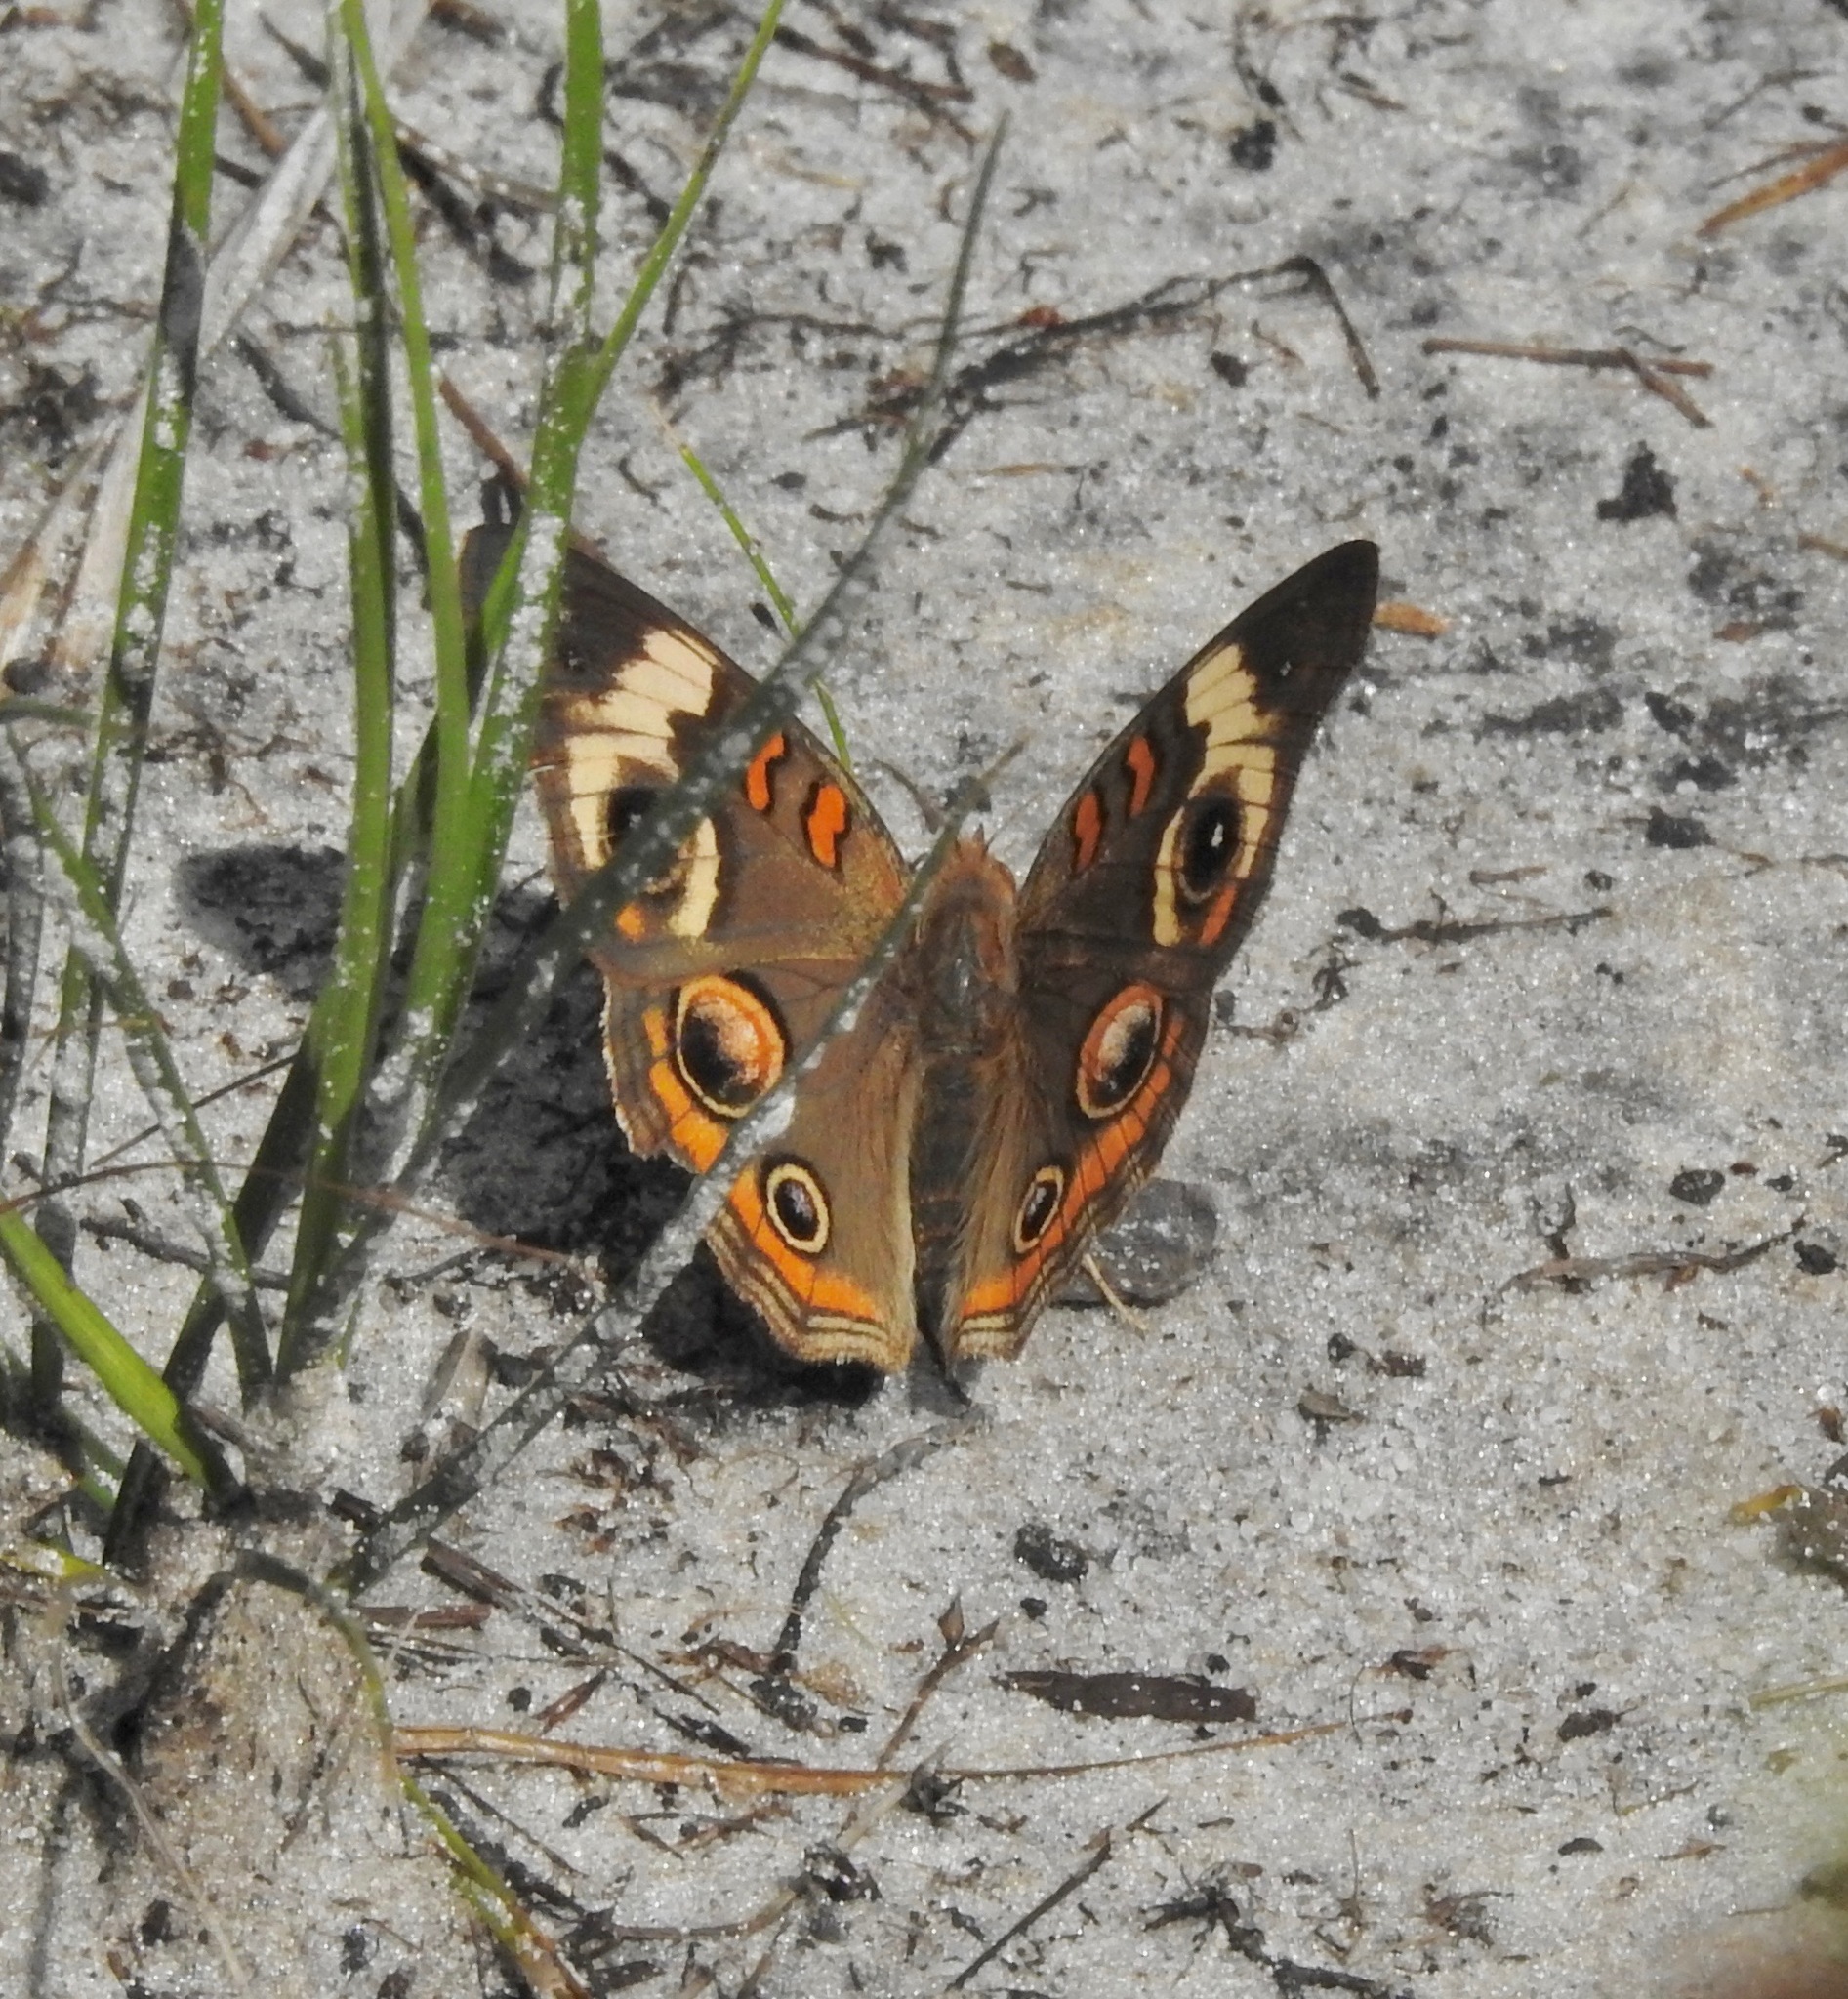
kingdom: Animalia
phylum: Arthropoda
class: Insecta
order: Lepidoptera
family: Nymphalidae
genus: Junonia
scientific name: Junonia coenia
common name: Common buckeye
